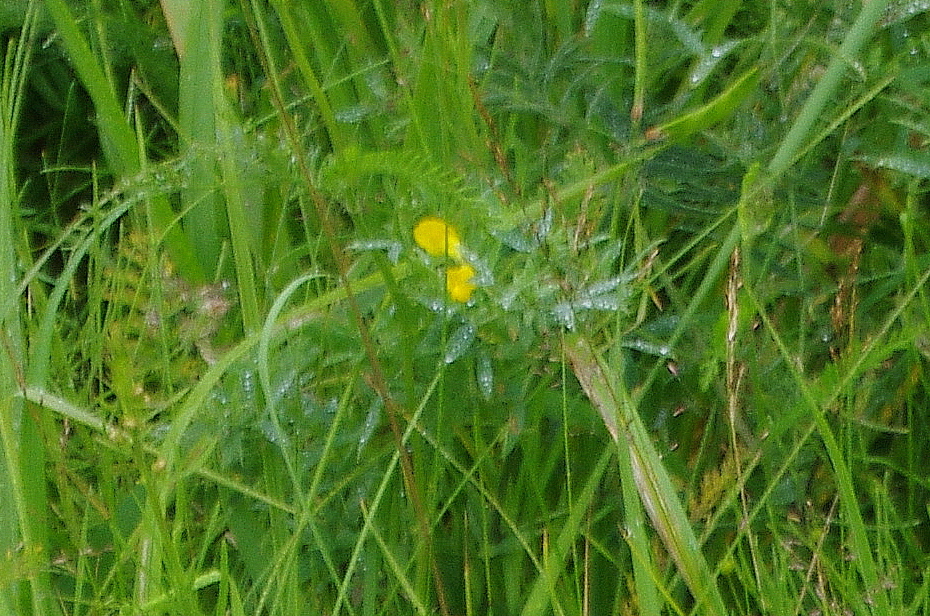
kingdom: Plantae
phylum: Tracheophyta
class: Magnoliopsida
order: Fabales
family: Fabaceae
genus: Lathyrus
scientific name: Lathyrus pratensis
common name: Meadow vetchling
